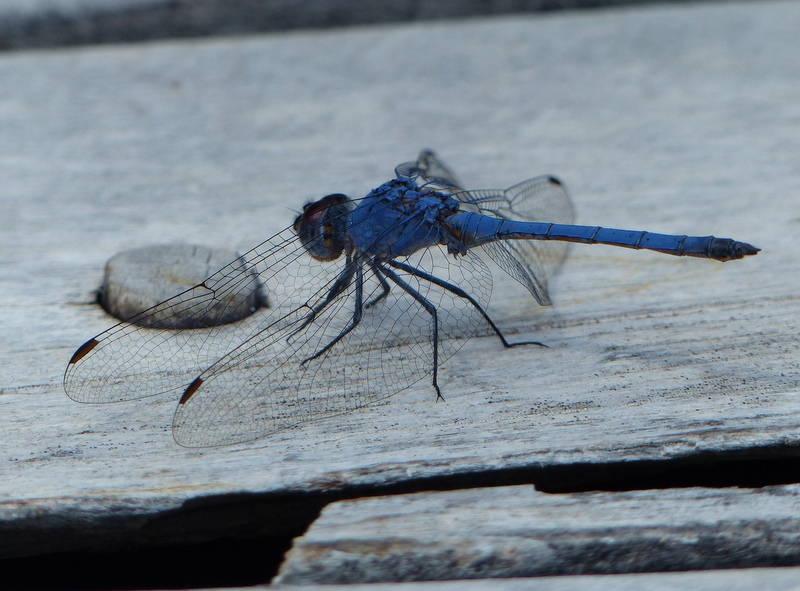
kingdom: Animalia
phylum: Arthropoda
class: Insecta
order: Odonata
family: Libellulidae
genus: Trithemis
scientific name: Trithemis donaldsoni
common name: Denim dropwing
